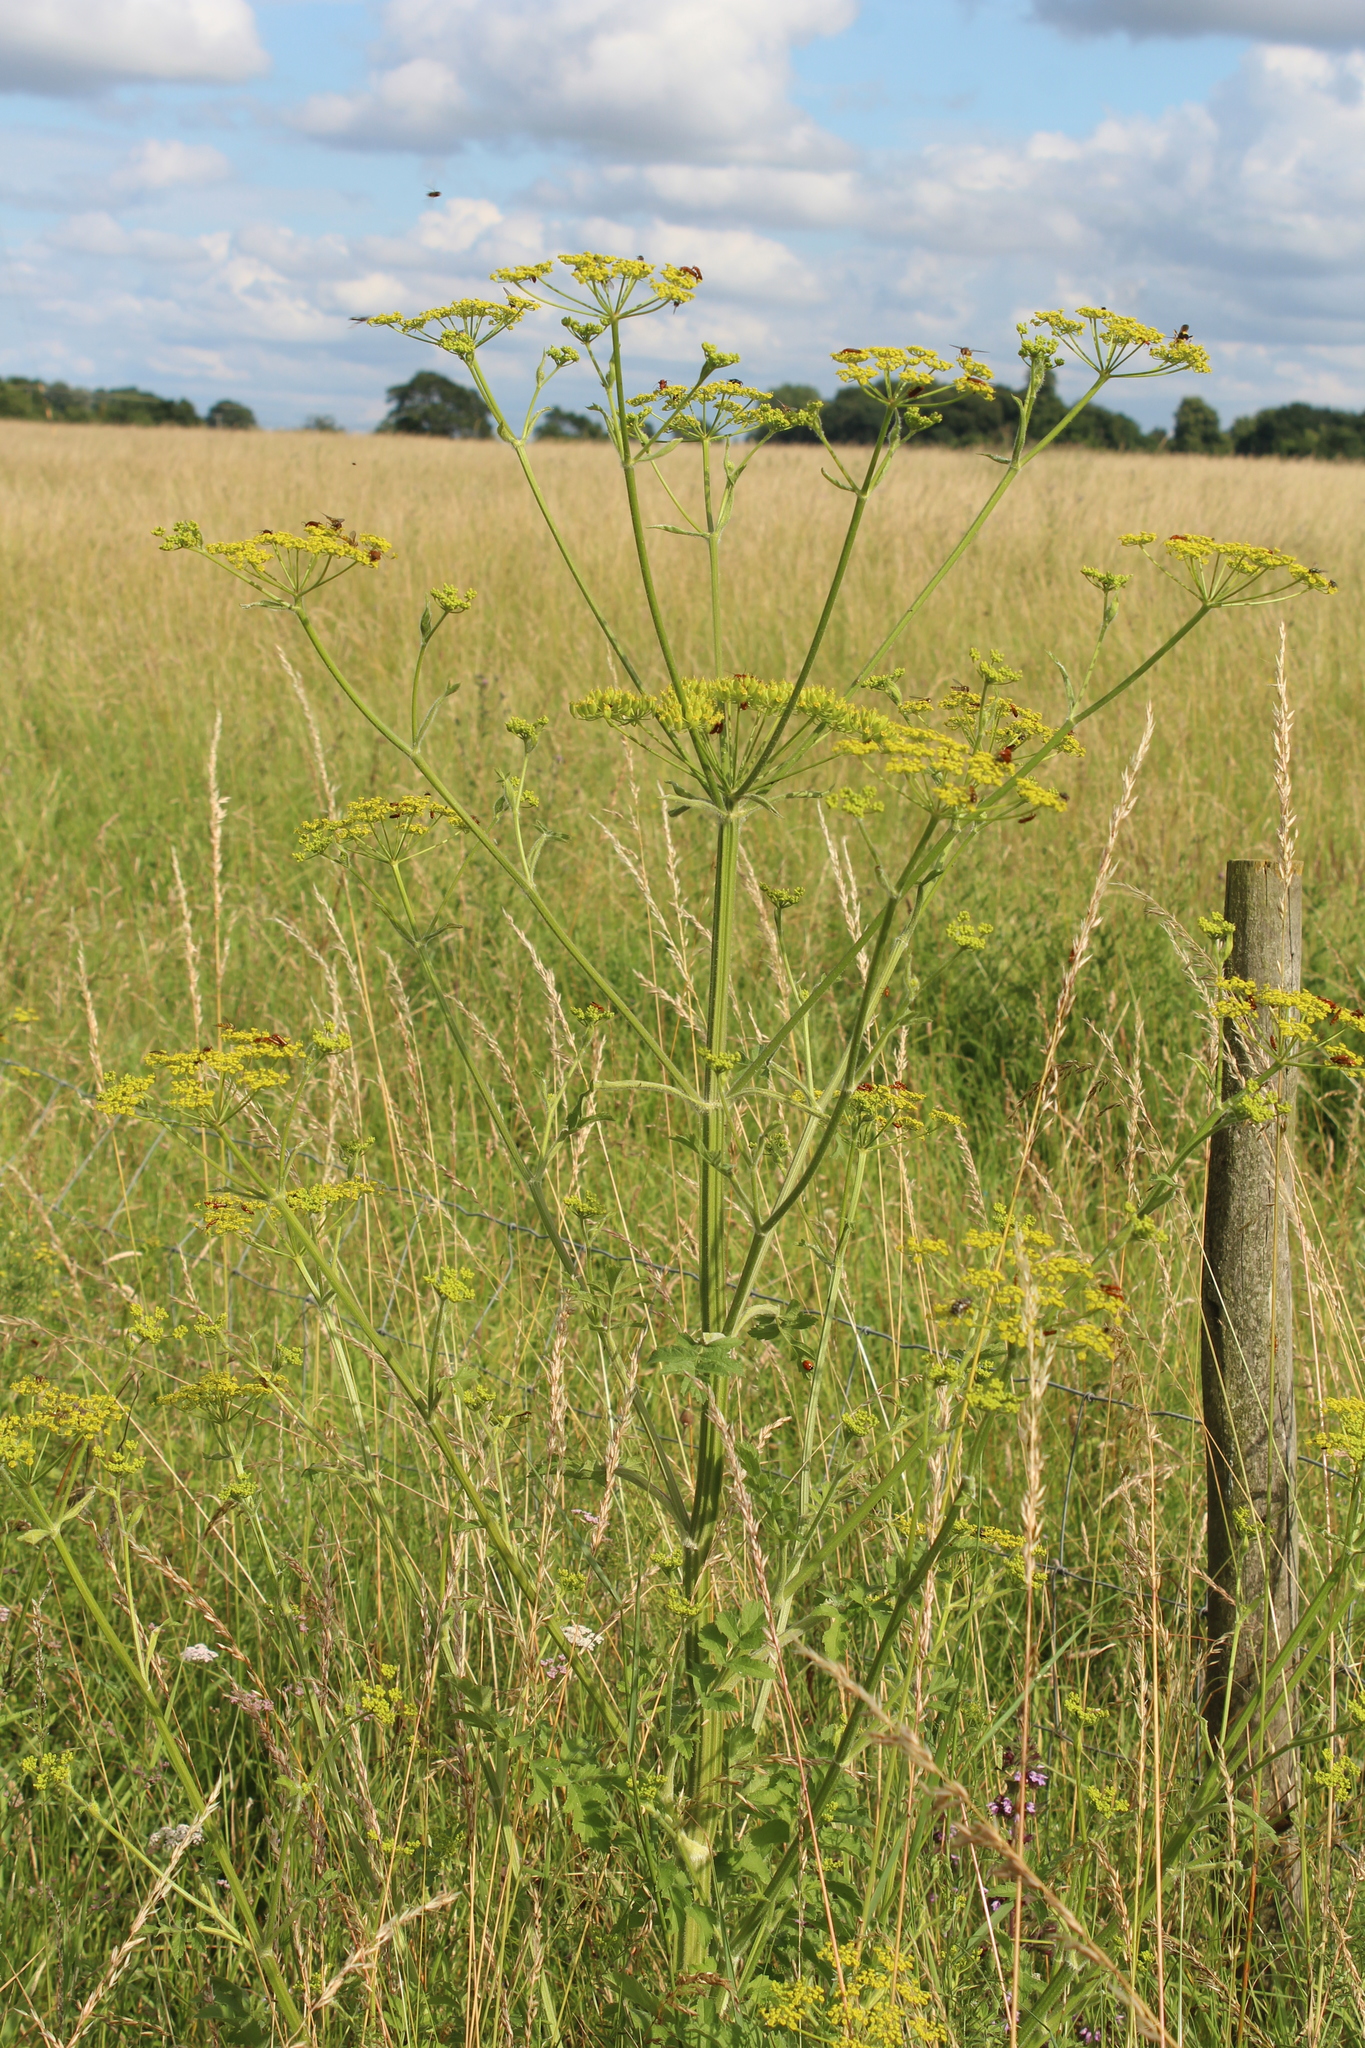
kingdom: Plantae
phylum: Tracheophyta
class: Magnoliopsida
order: Apiales
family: Apiaceae
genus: Pastinaca
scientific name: Pastinaca sativa
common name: Wild parsnip
